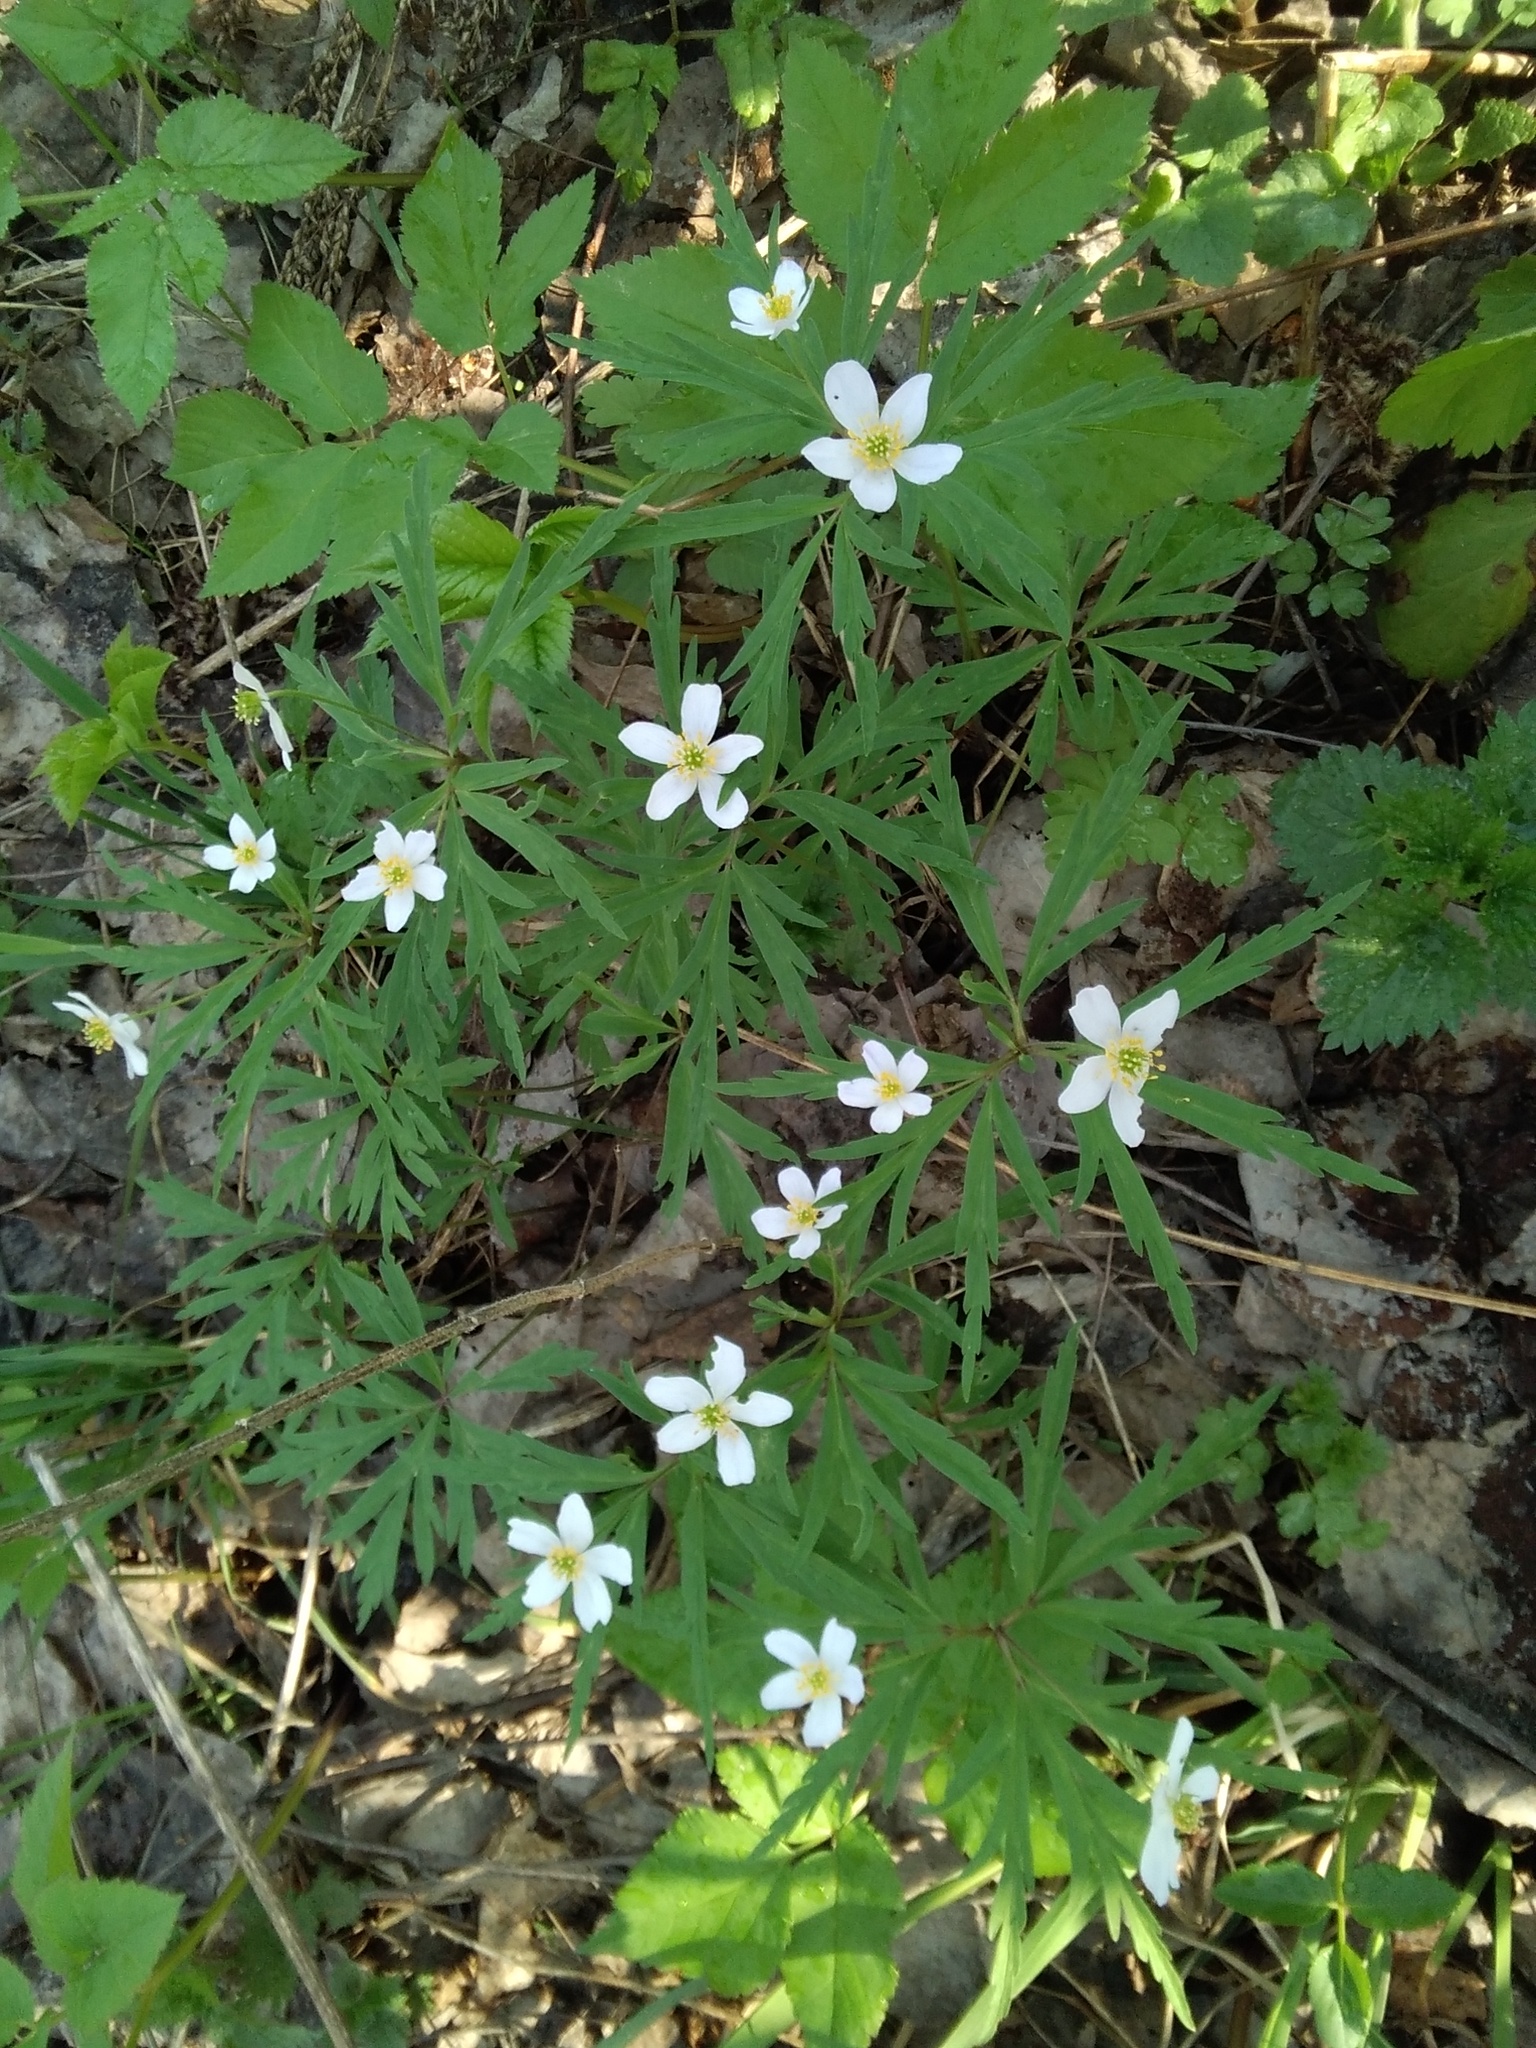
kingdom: Plantae
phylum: Tracheophyta
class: Magnoliopsida
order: Ranunculales
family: Ranunculaceae
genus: Anemone
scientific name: Anemone caerulea
